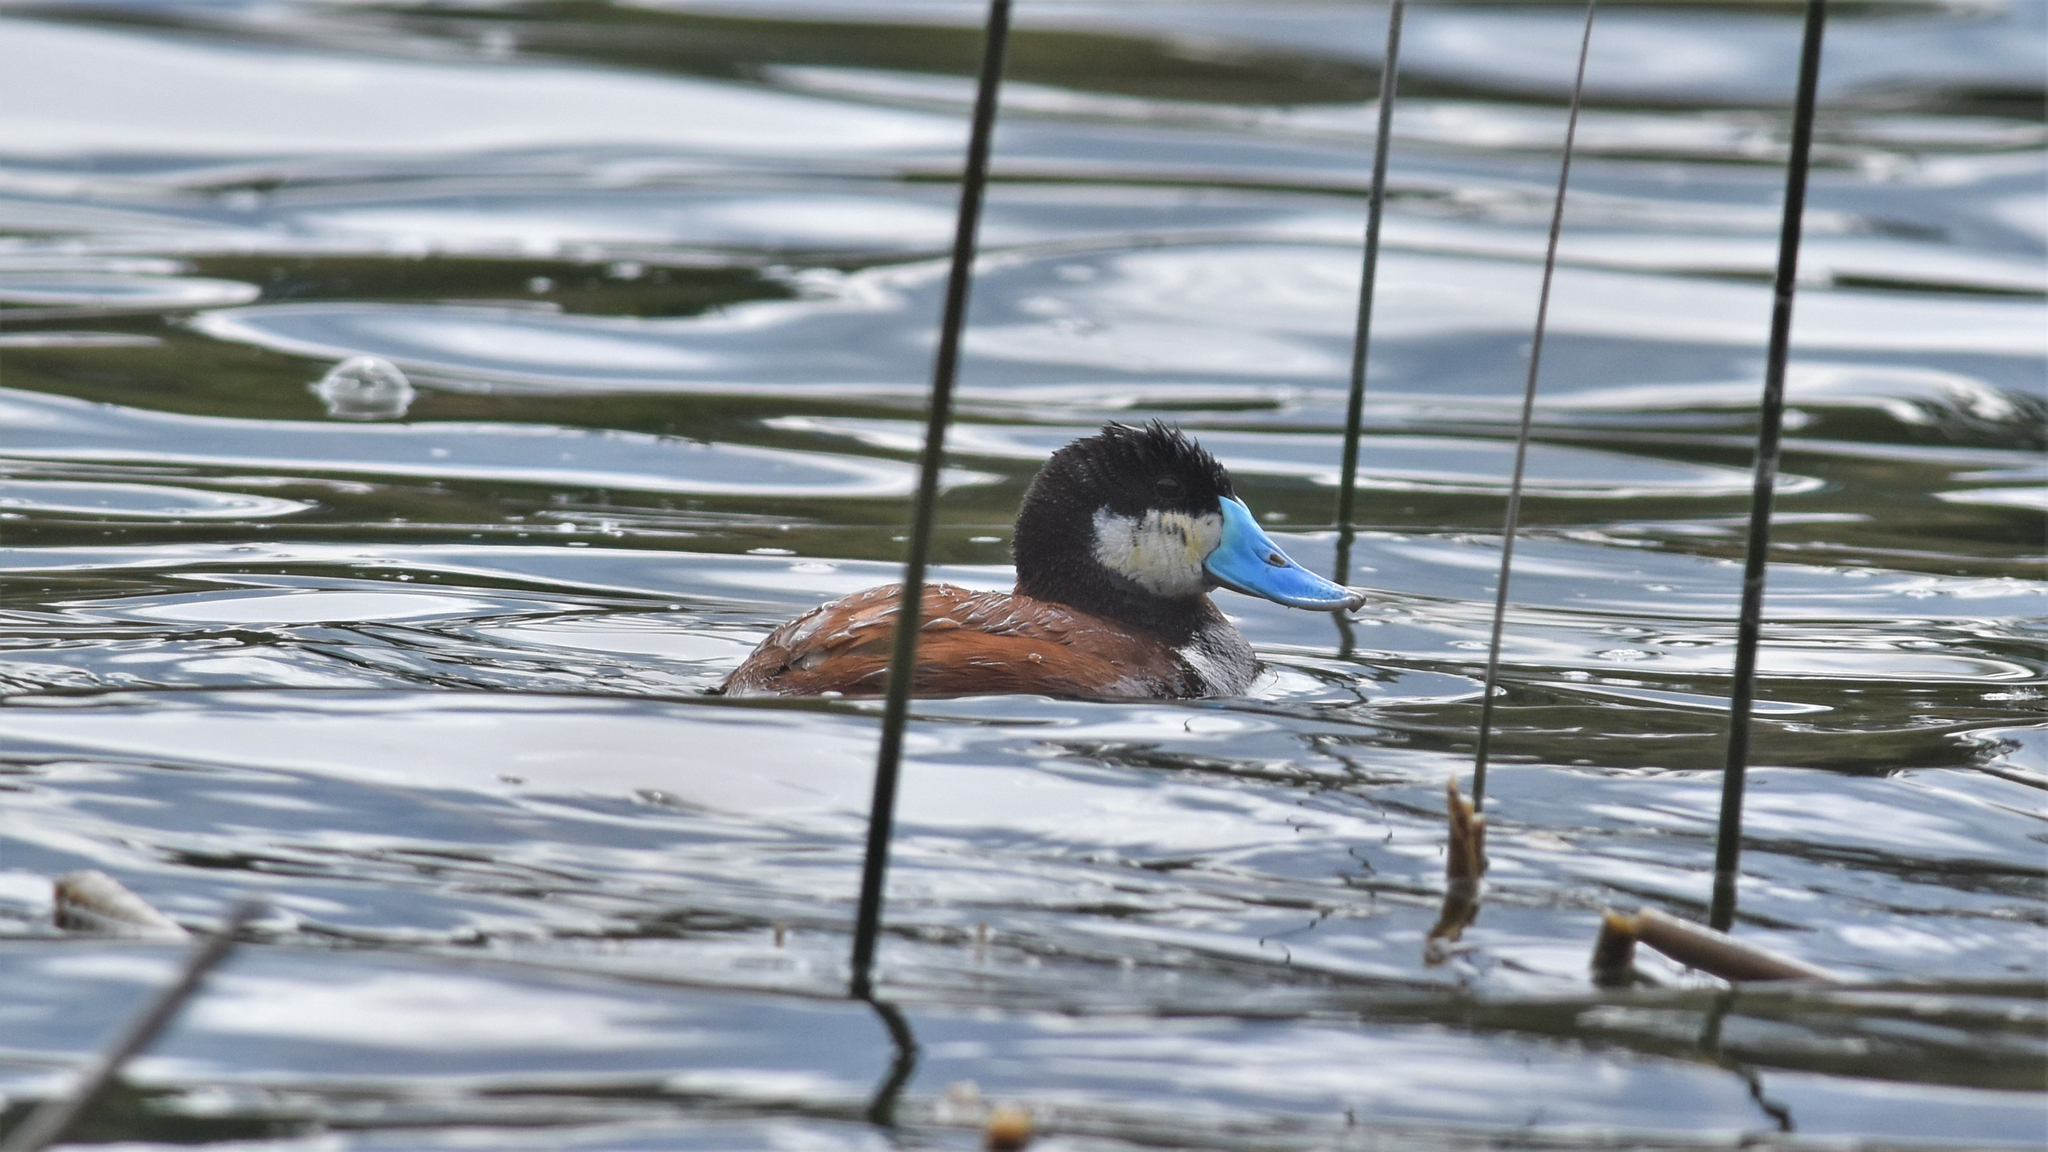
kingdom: Animalia
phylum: Chordata
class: Aves
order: Anseriformes
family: Anatidae
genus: Oxyura
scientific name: Oxyura jamaicensis
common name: Ruddy duck
